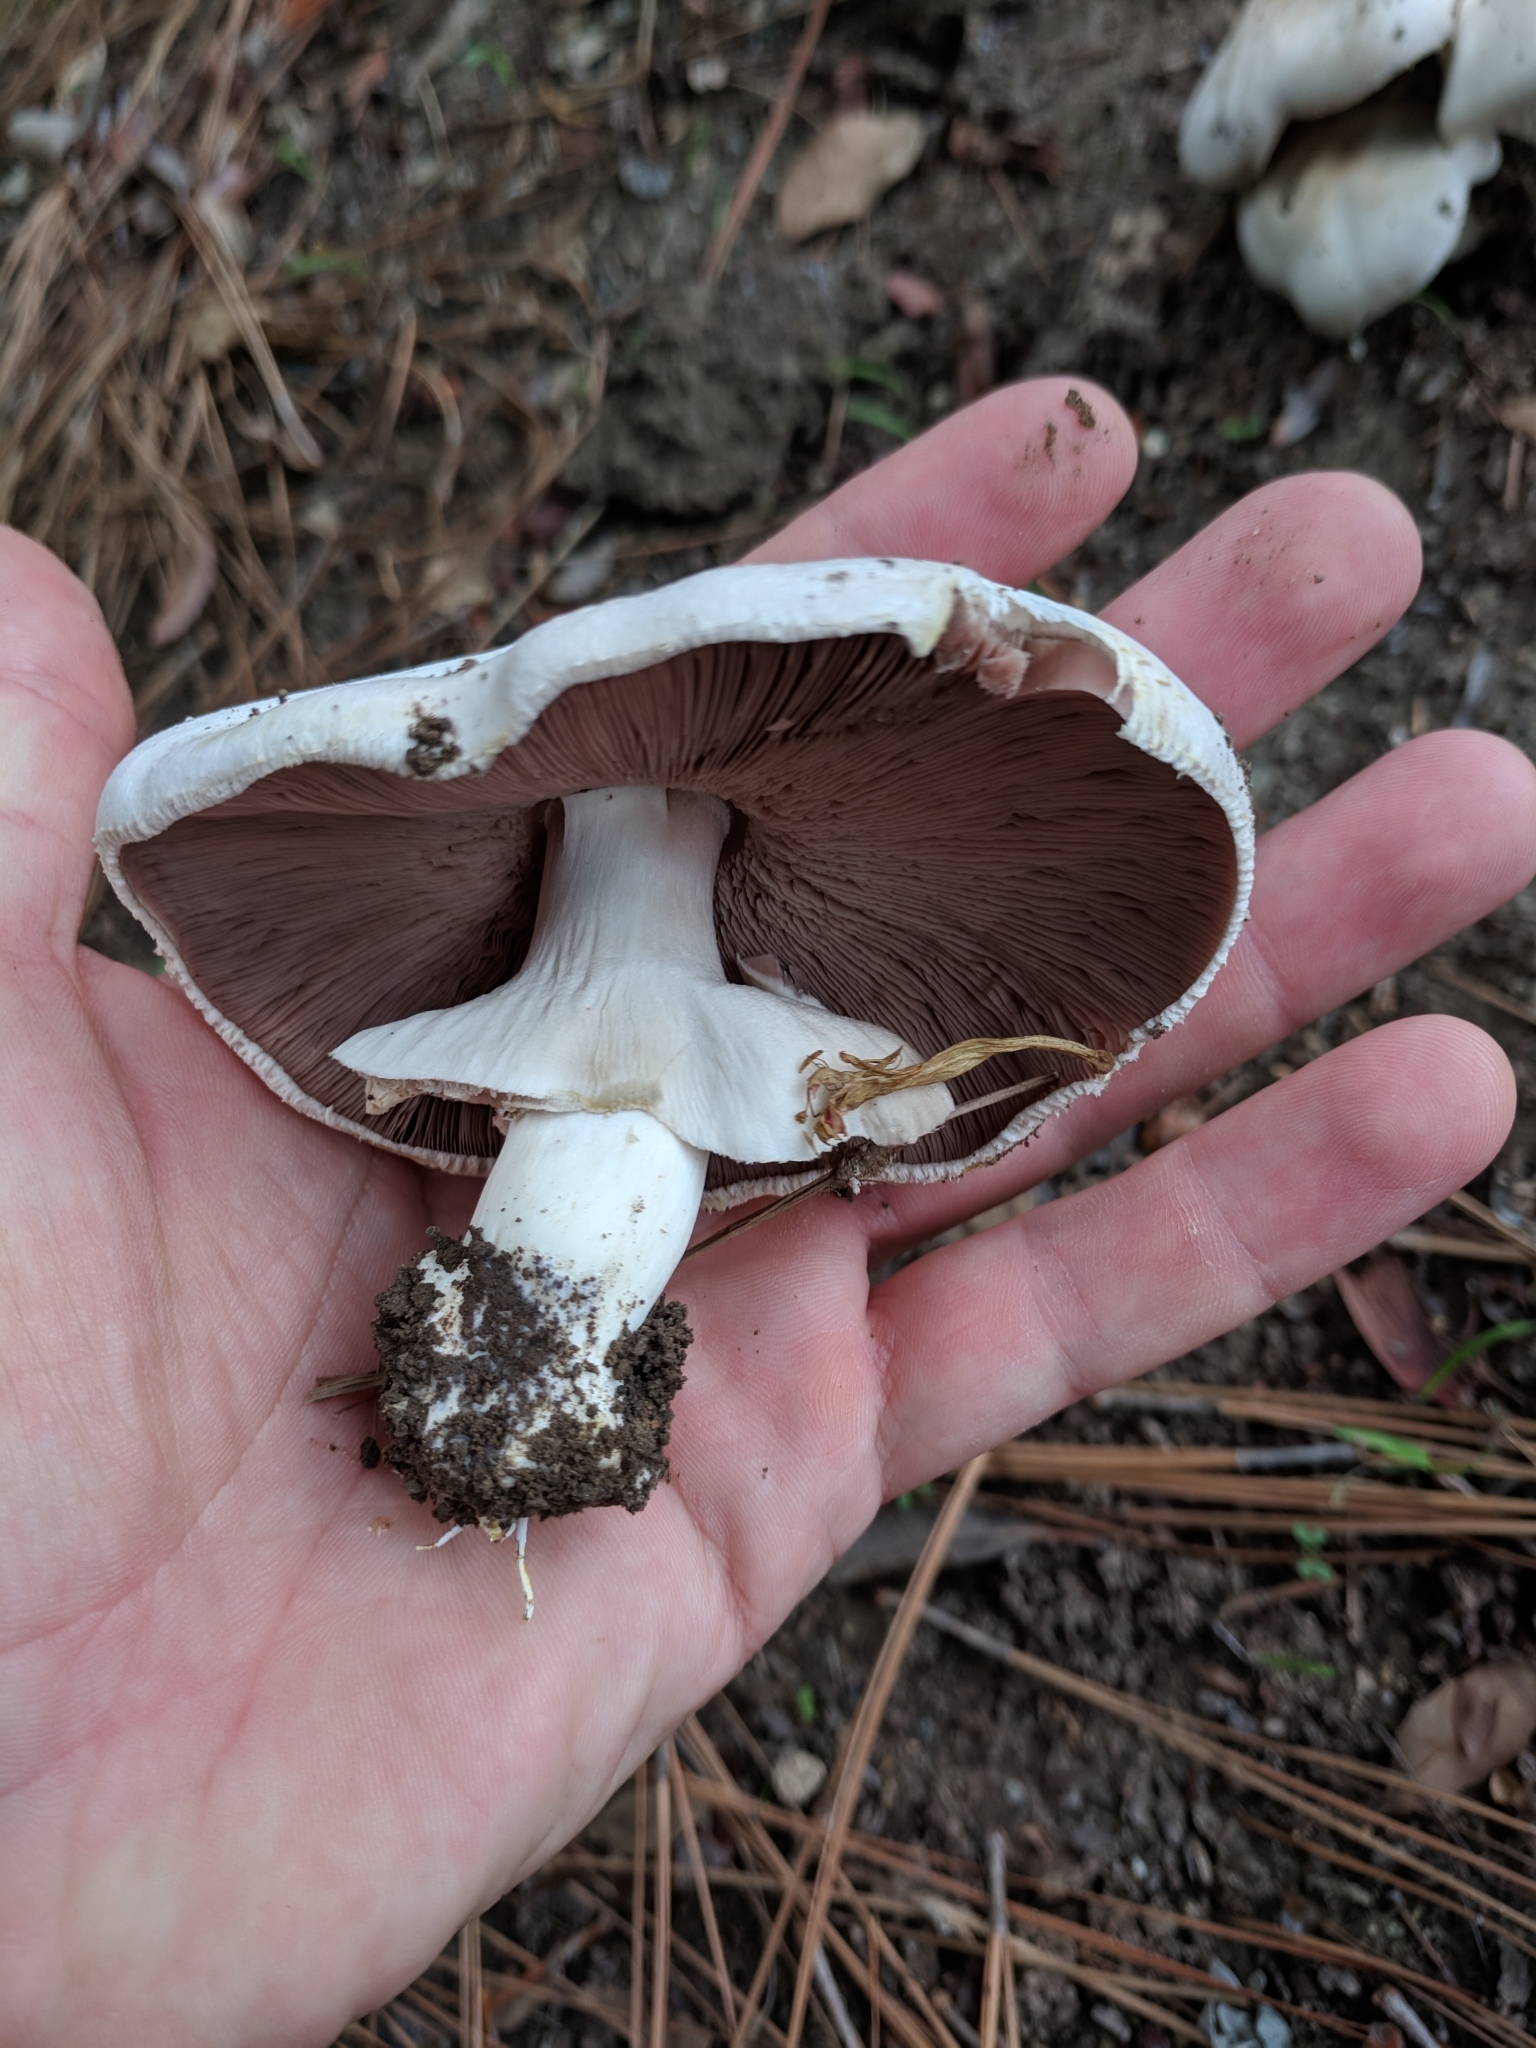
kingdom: Fungi
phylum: Basidiomycota
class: Agaricomycetes
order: Agaricales
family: Agaricaceae
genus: Agaricus
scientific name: Agaricus xanthodermus
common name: Yellow stainer
